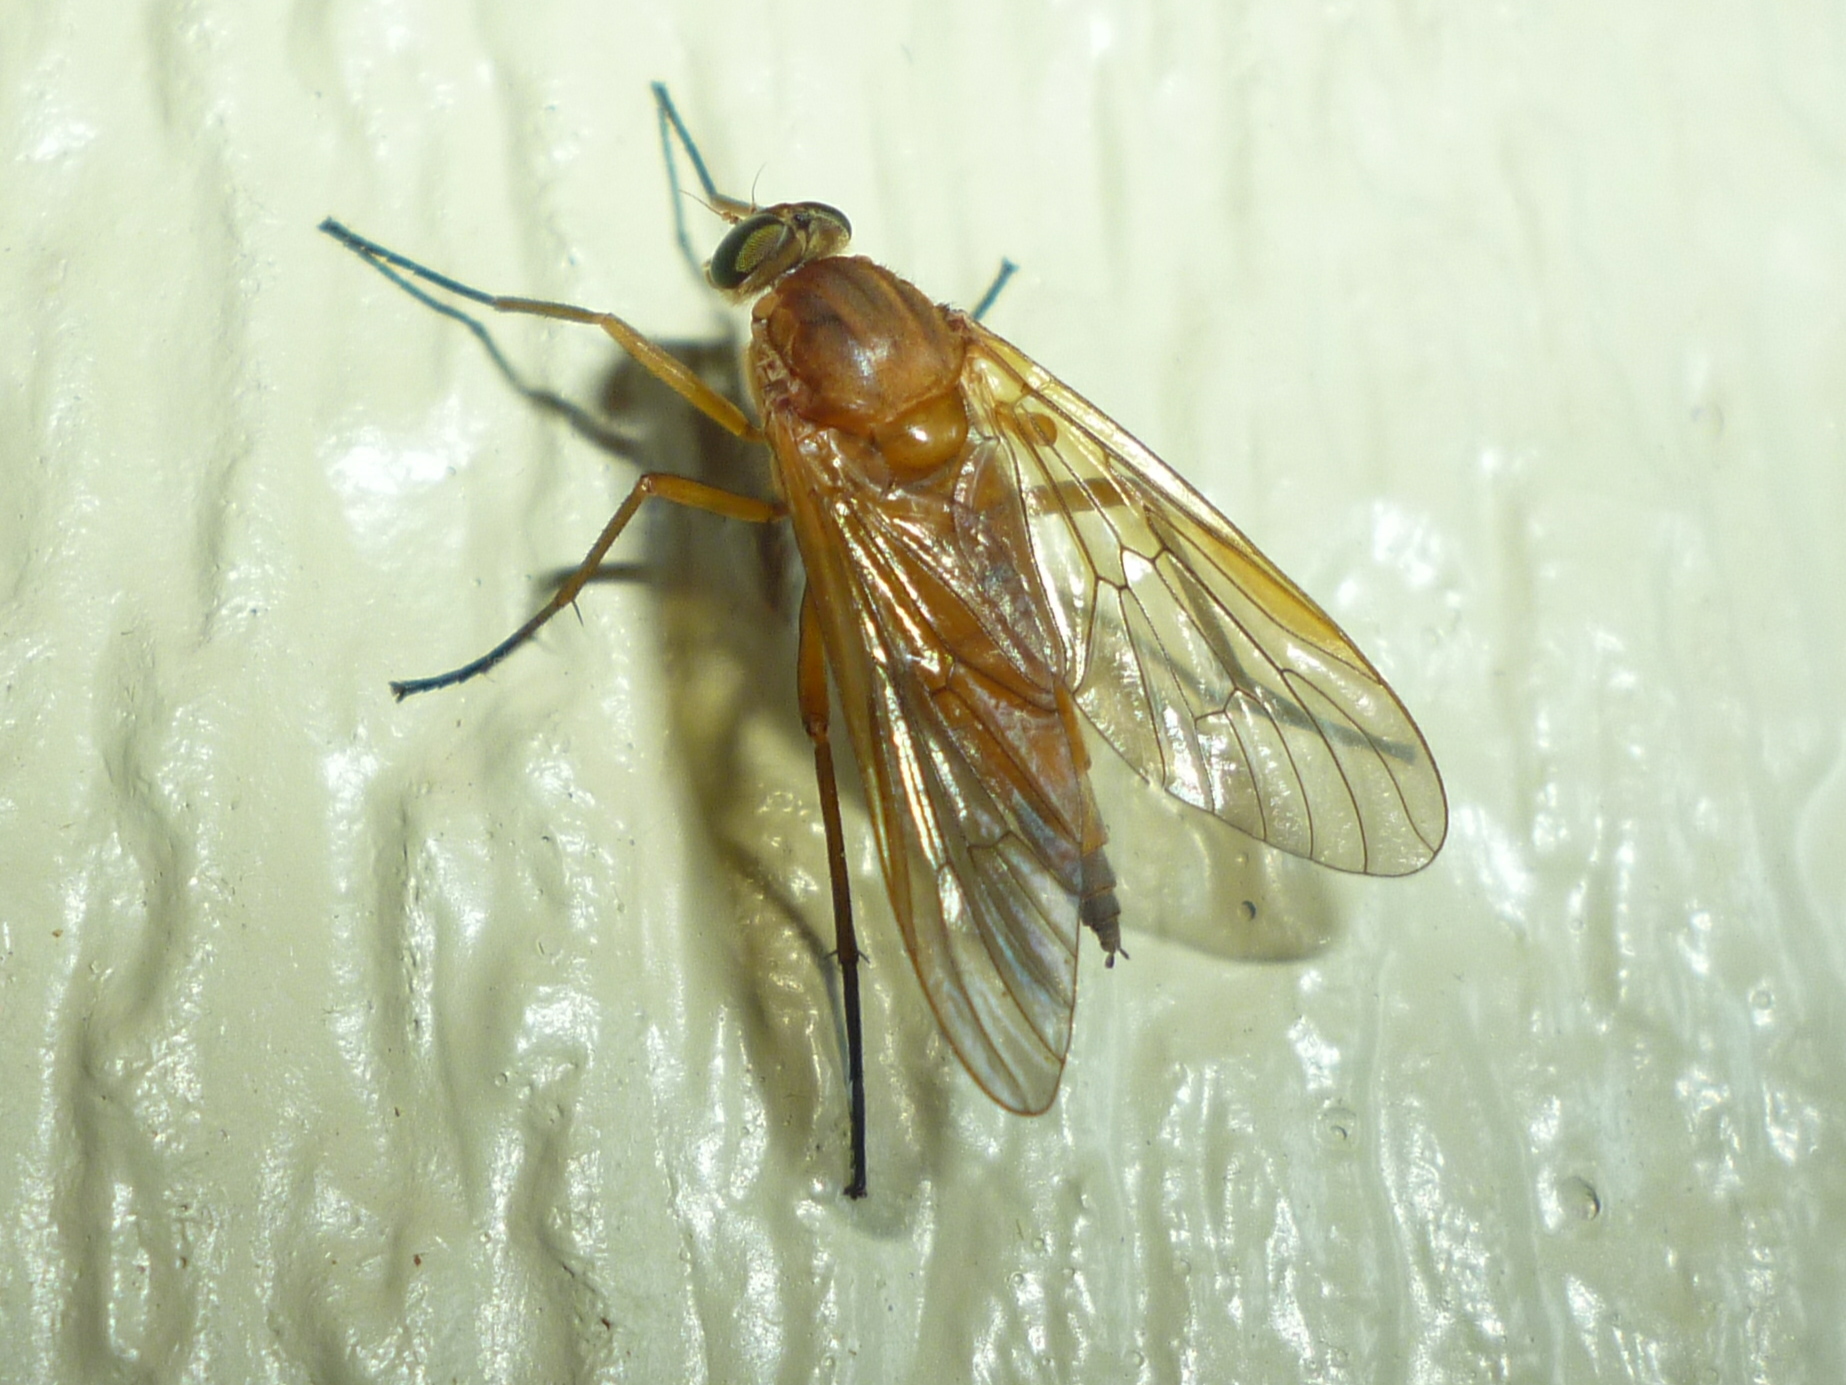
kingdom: Animalia
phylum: Arthropoda
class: Insecta
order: Diptera
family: Rhagionidae
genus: Rhagio
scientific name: Rhagio tringaria
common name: Marsh snipefly
